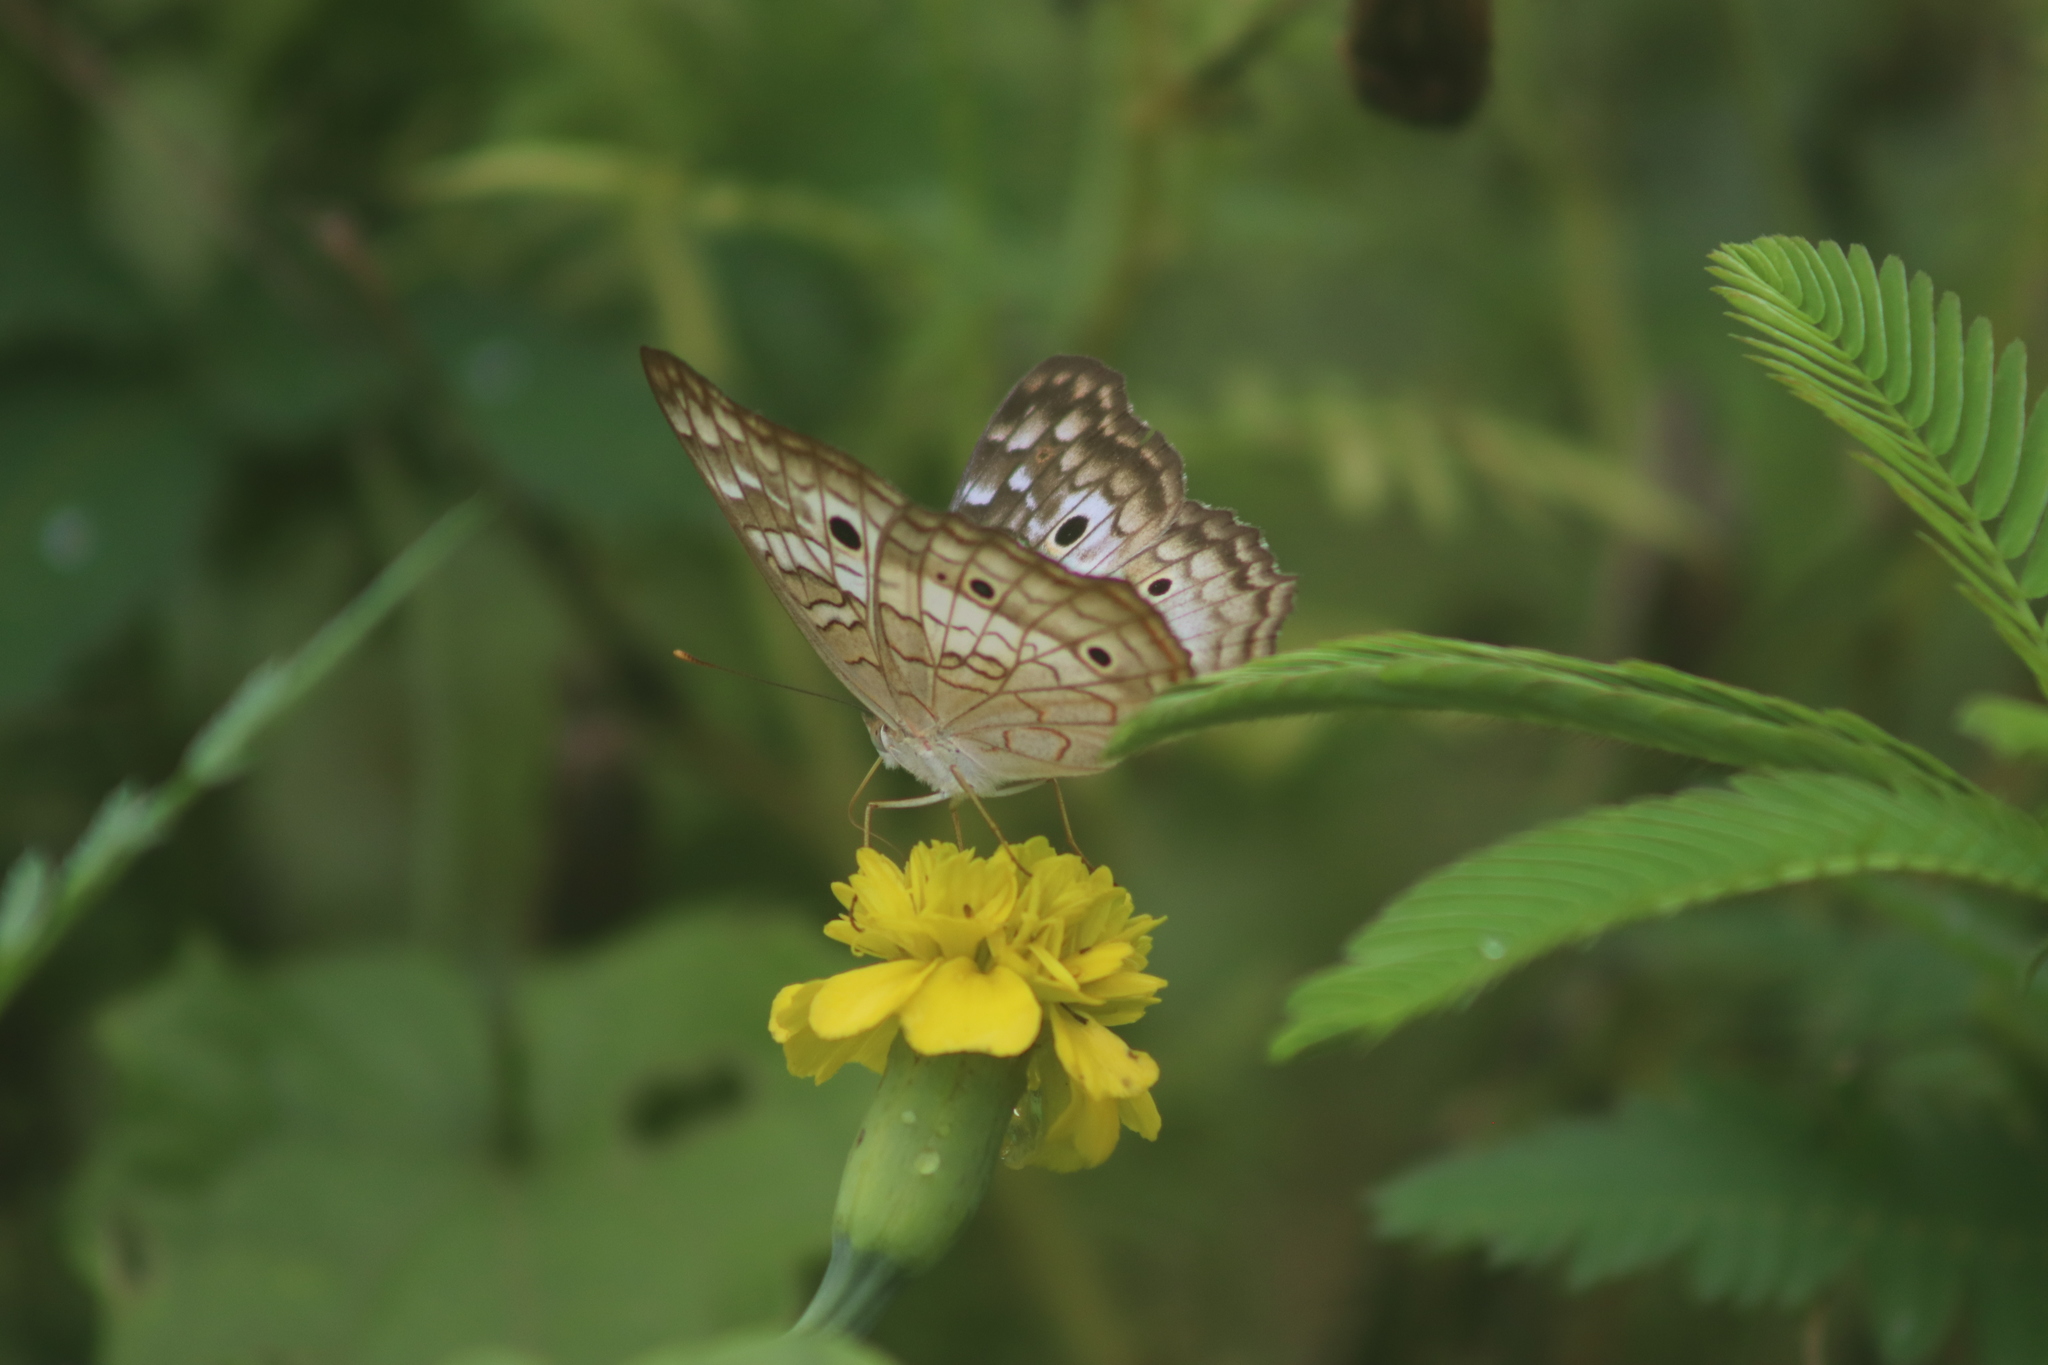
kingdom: Animalia
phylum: Arthropoda
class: Insecta
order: Lepidoptera
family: Nymphalidae
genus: Anartia
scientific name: Anartia jatrophae
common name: White peacock
